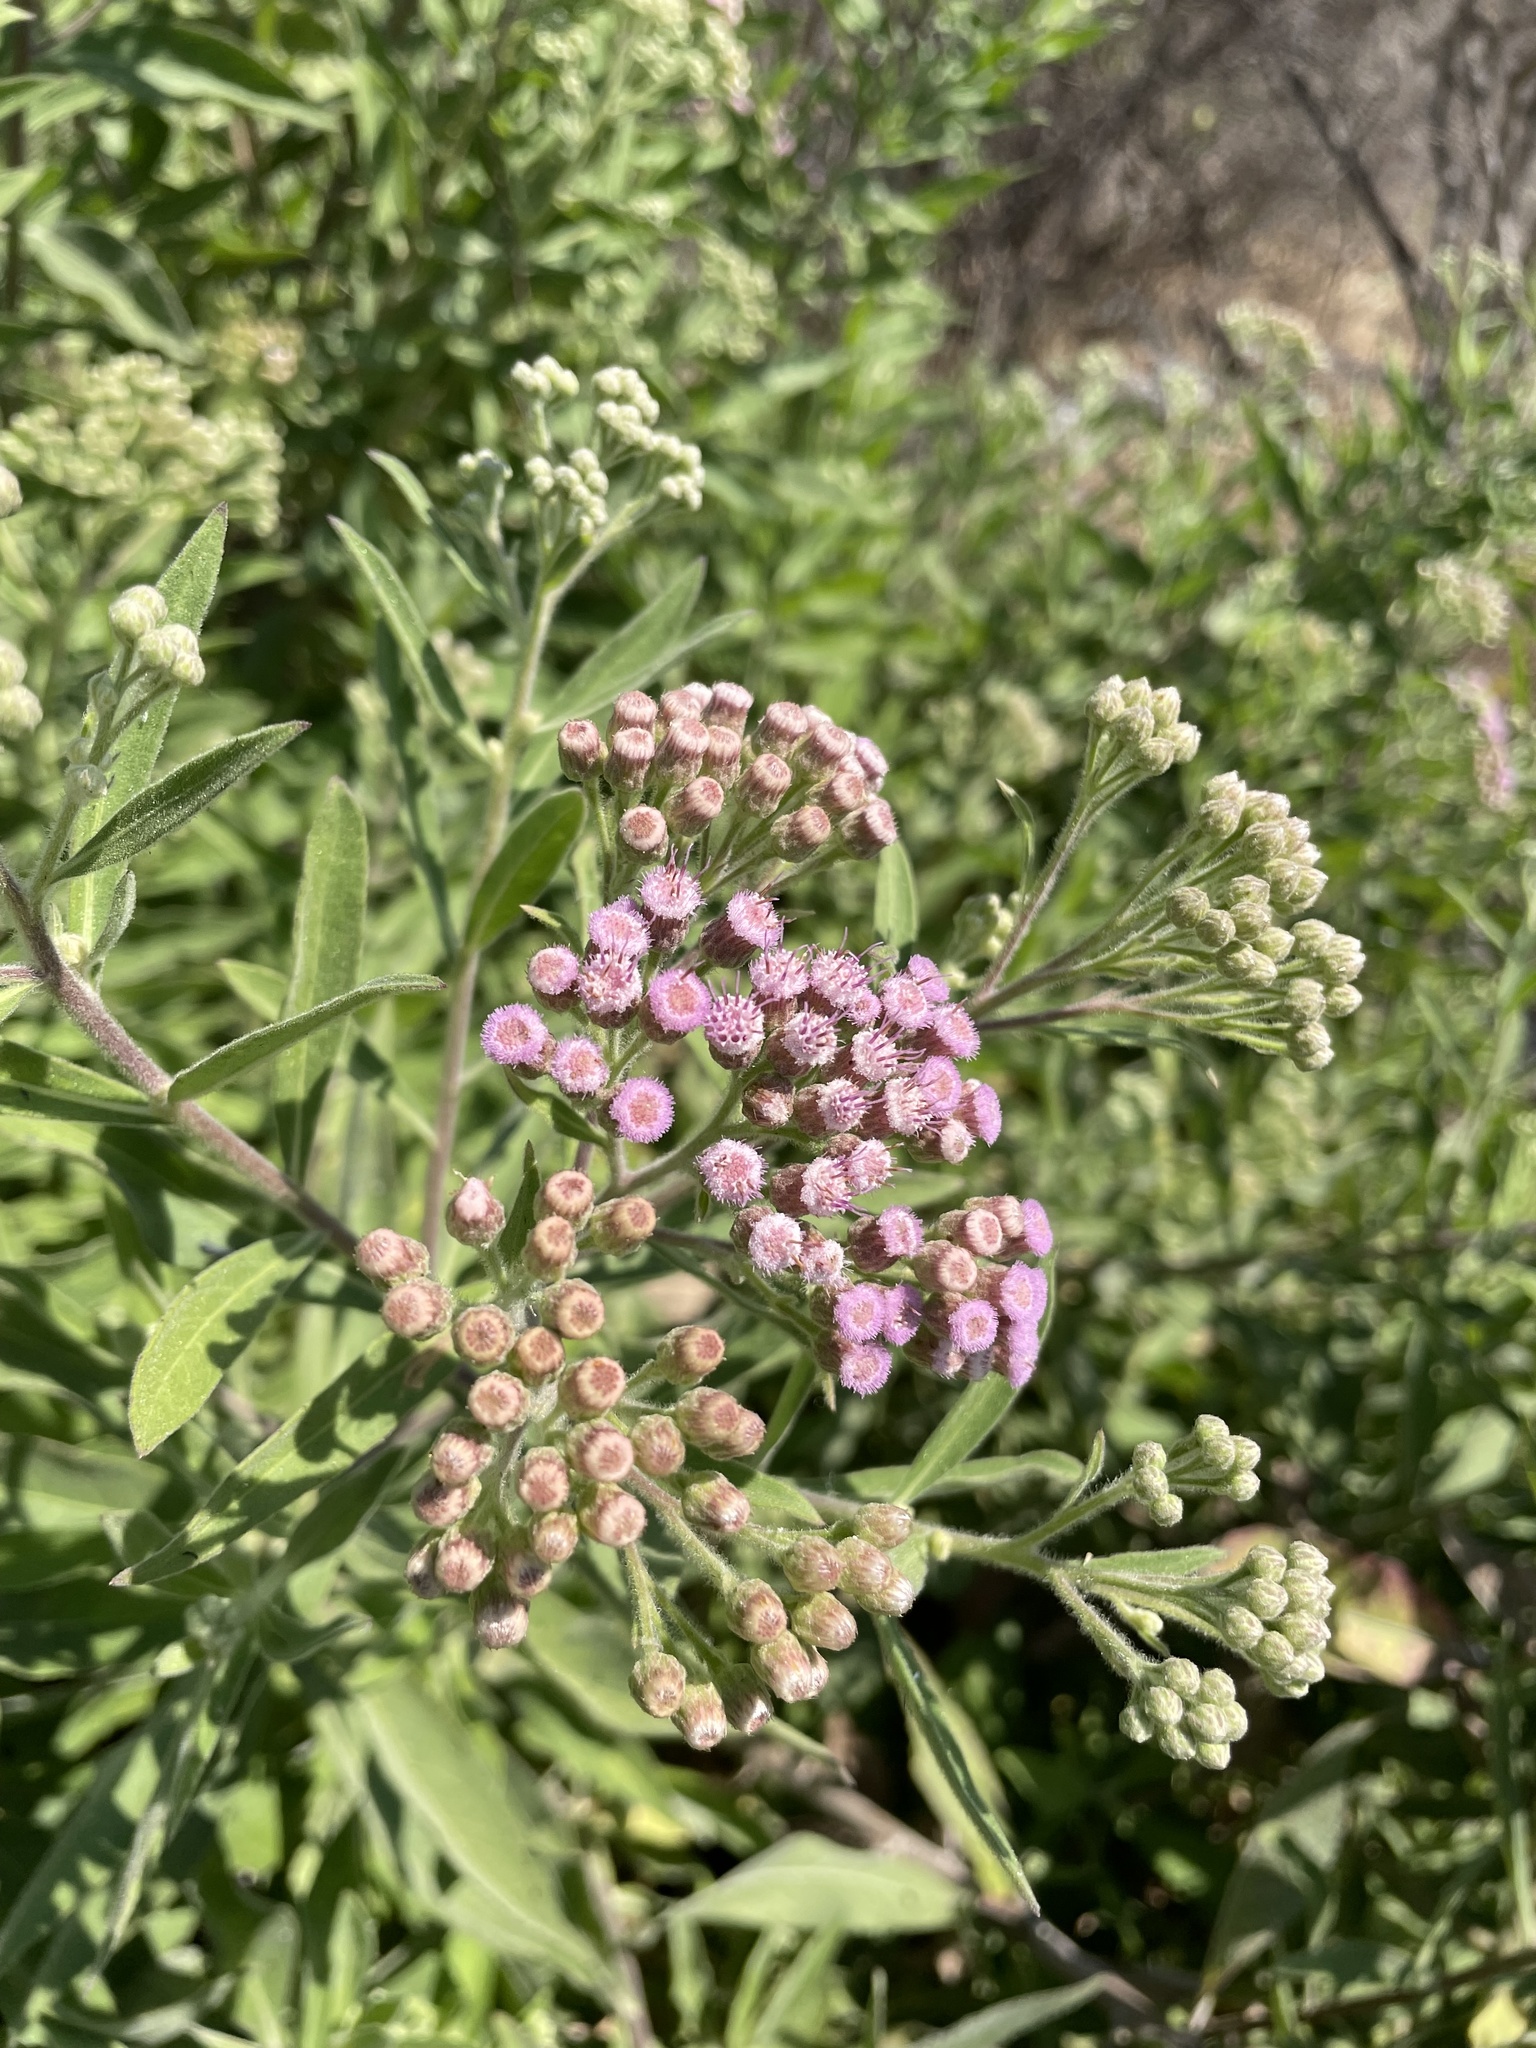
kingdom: Plantae
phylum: Tracheophyta
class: Magnoliopsida
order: Asterales
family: Asteraceae
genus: Pluchea
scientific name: Pluchea carolinensis
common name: Marsh fleabane
